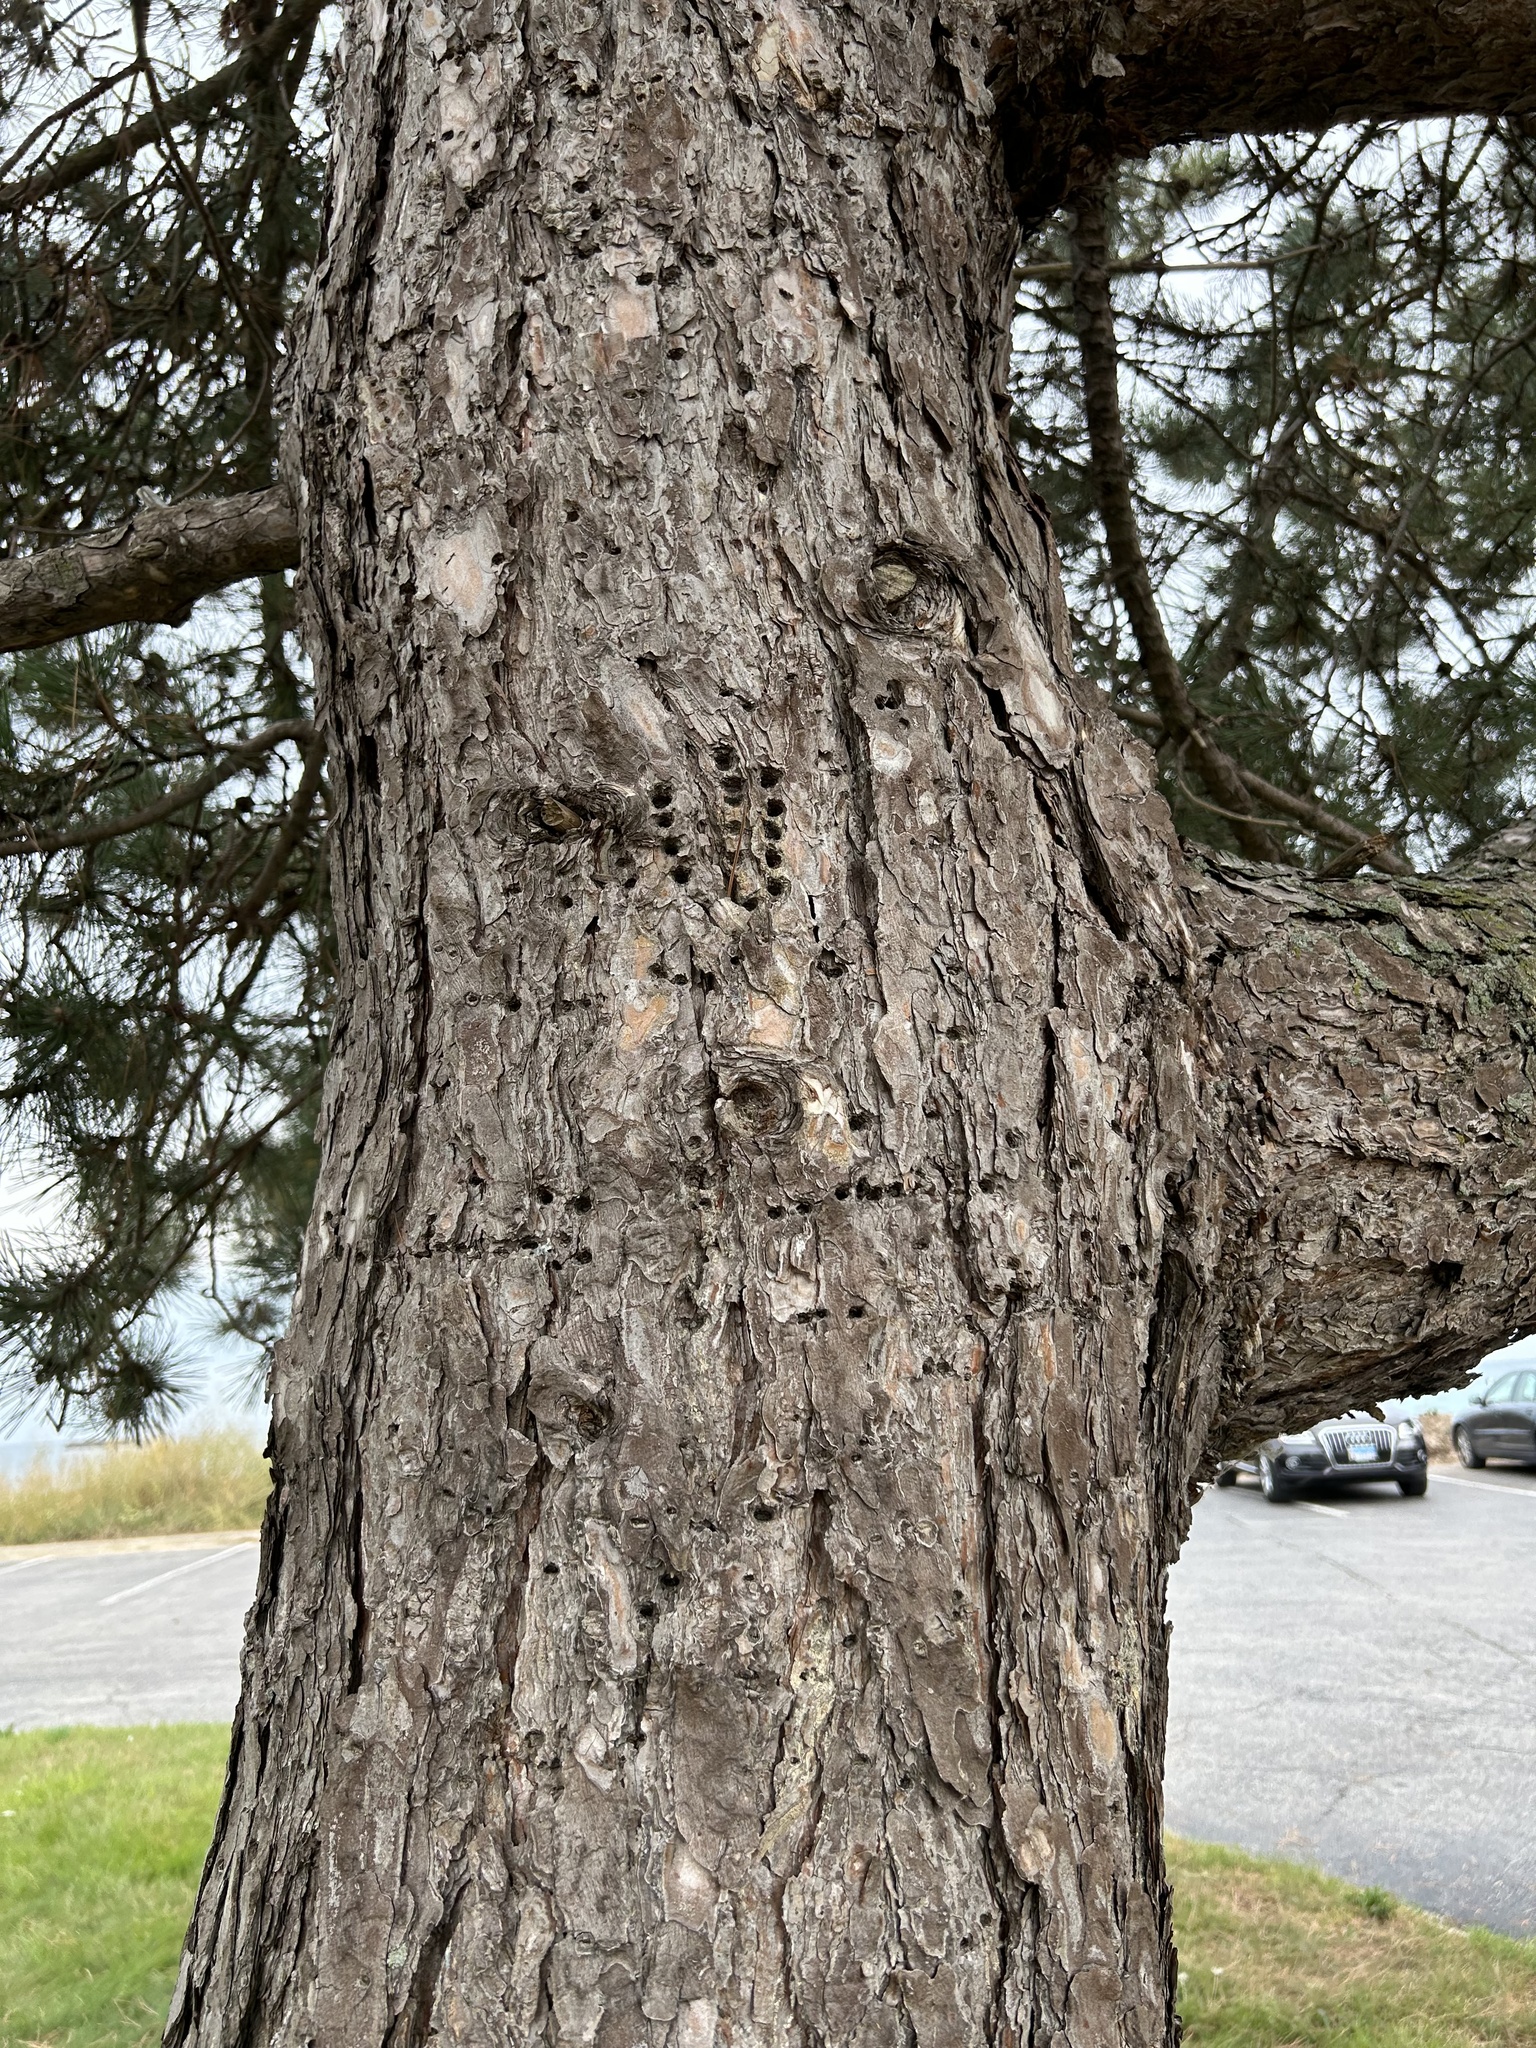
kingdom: Animalia
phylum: Chordata
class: Aves
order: Piciformes
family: Picidae
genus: Sphyrapicus
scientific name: Sphyrapicus varius
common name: Yellow-bellied sapsucker
